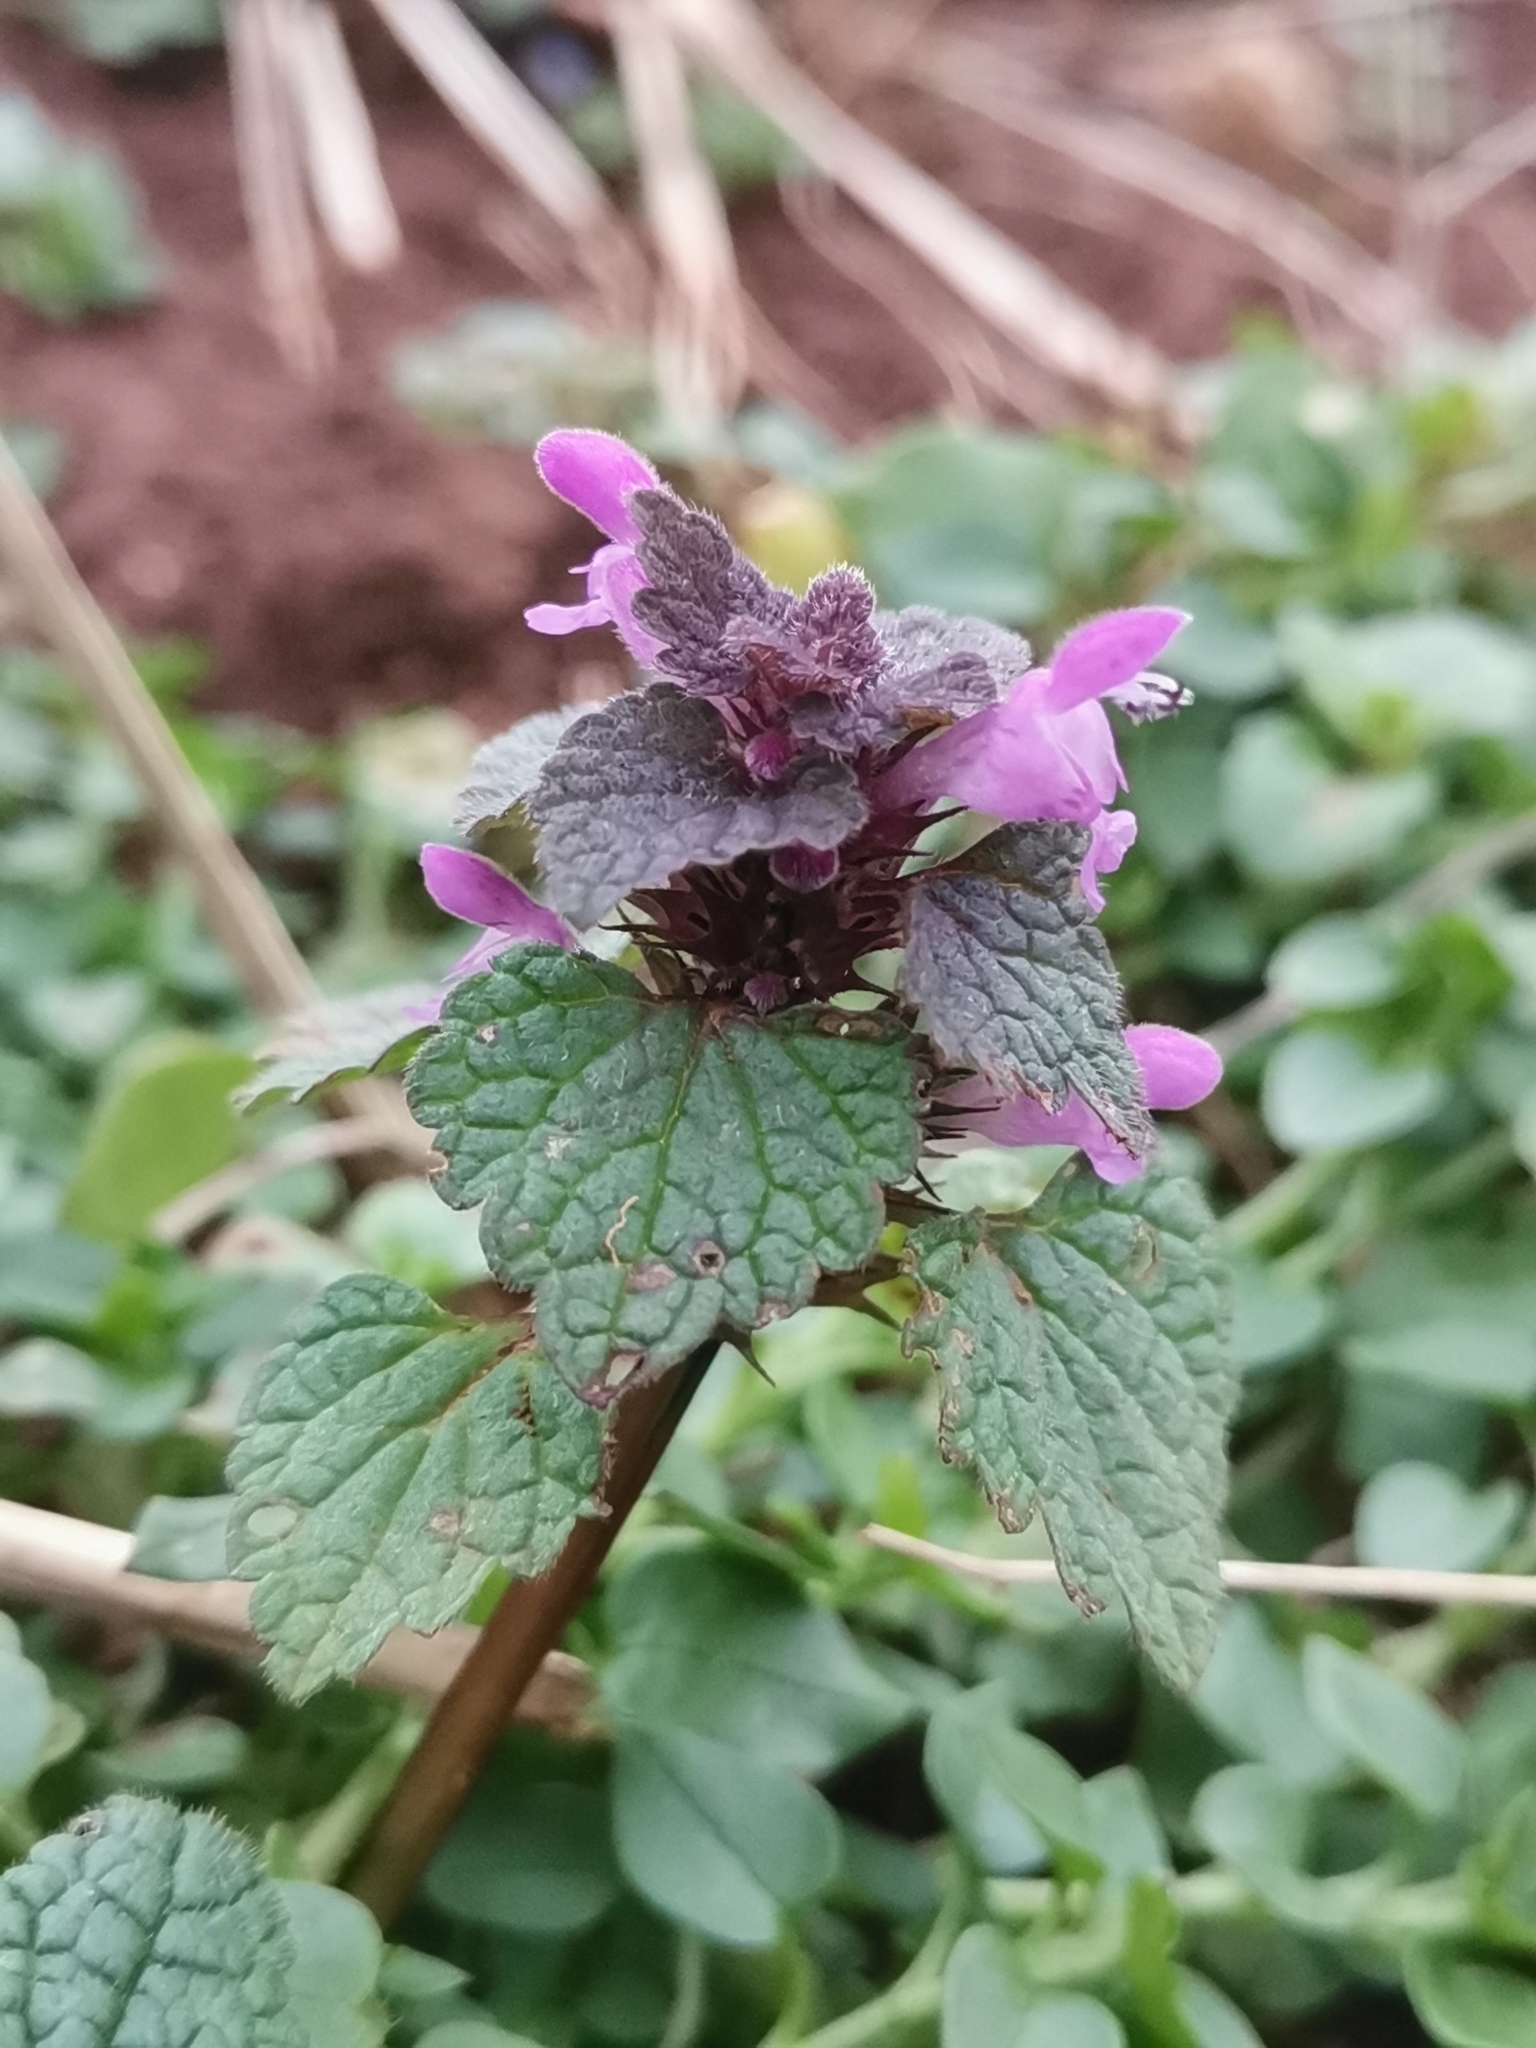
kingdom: Plantae
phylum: Tracheophyta
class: Magnoliopsida
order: Lamiales
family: Lamiaceae
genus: Lamium
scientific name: Lamium purpureum
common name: Red dead-nettle
